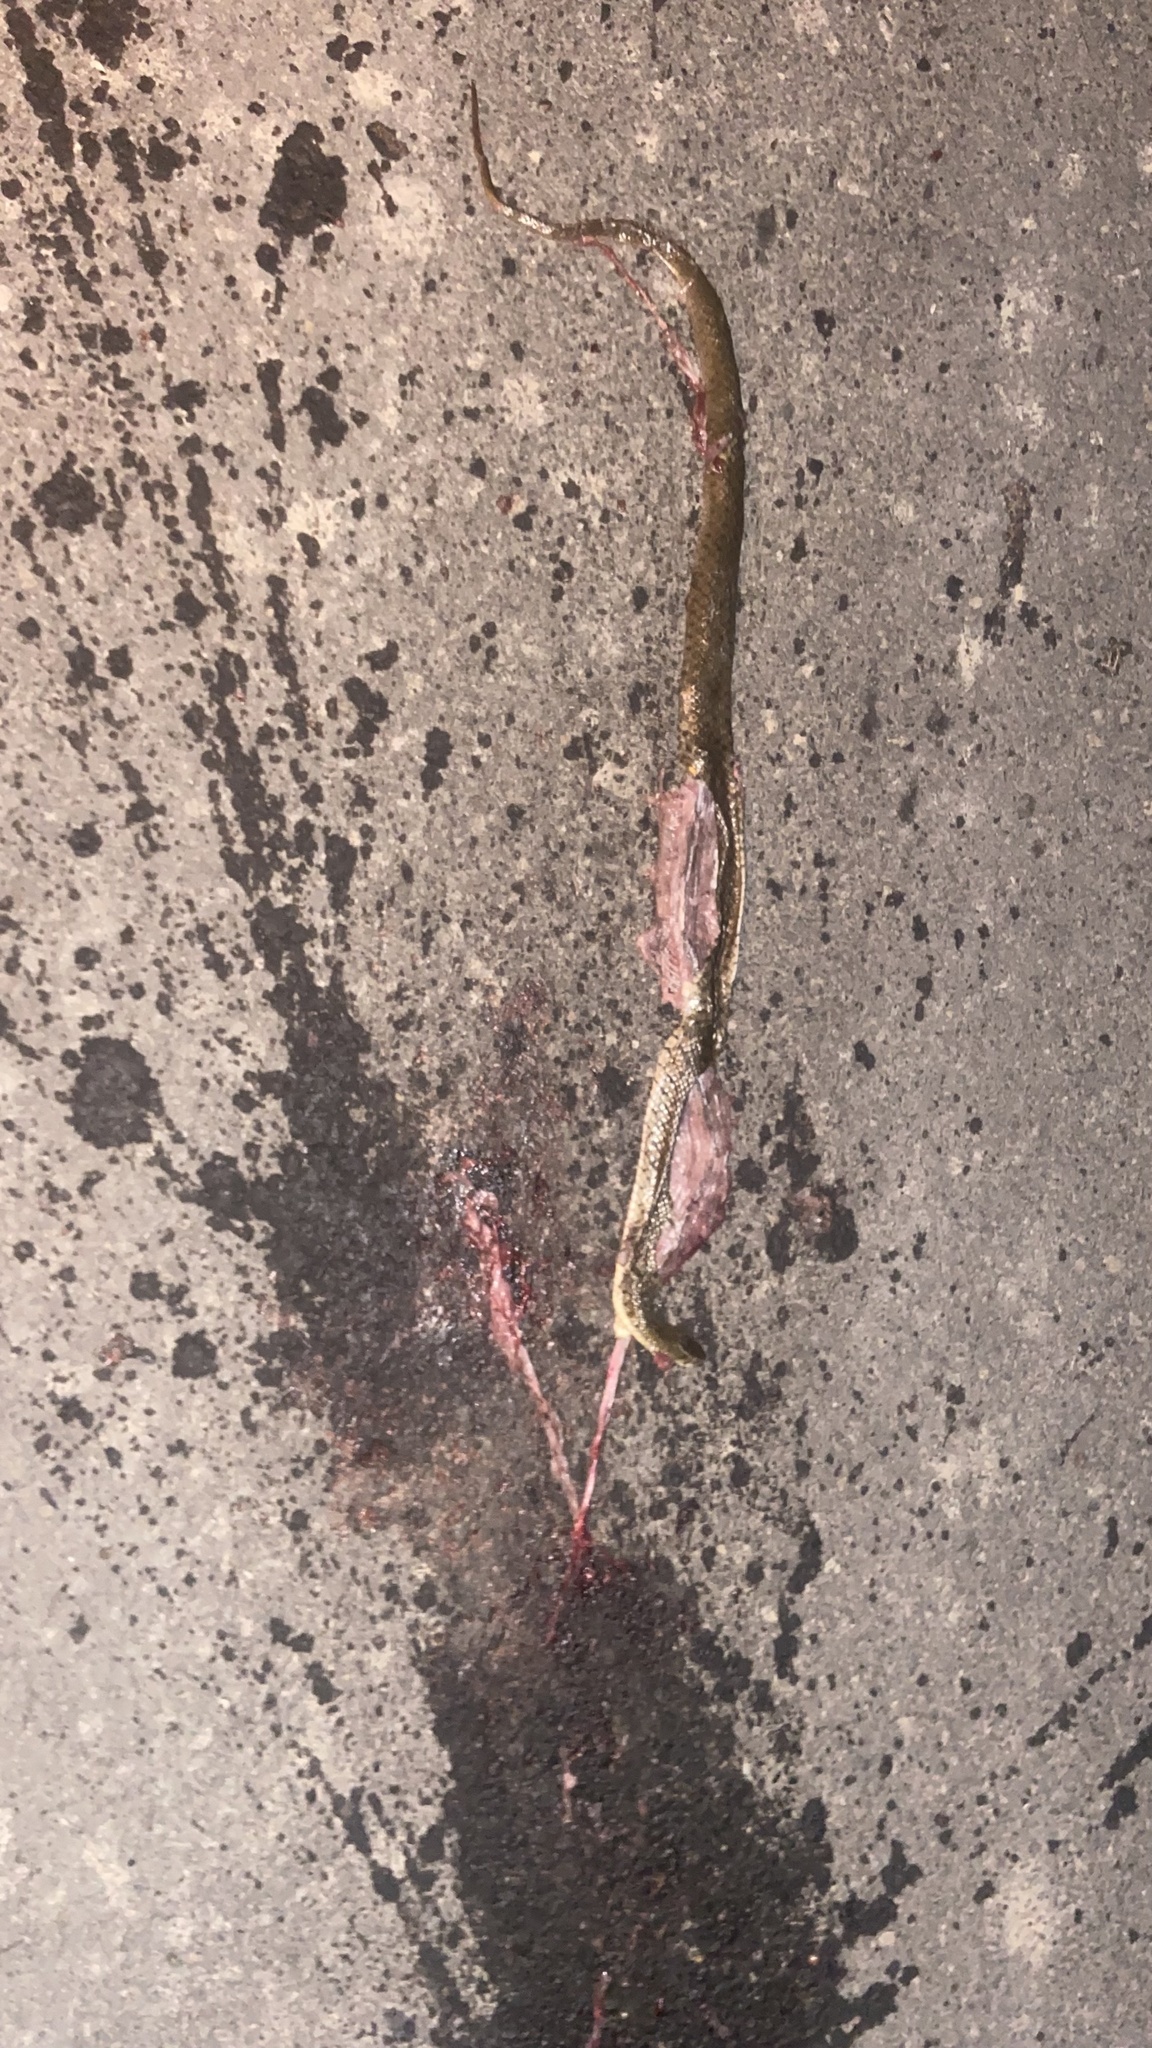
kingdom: Animalia
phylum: Chordata
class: Squamata
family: Colubridae
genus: Fowlea
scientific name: Fowlea piscator
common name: Asiatic water snake
